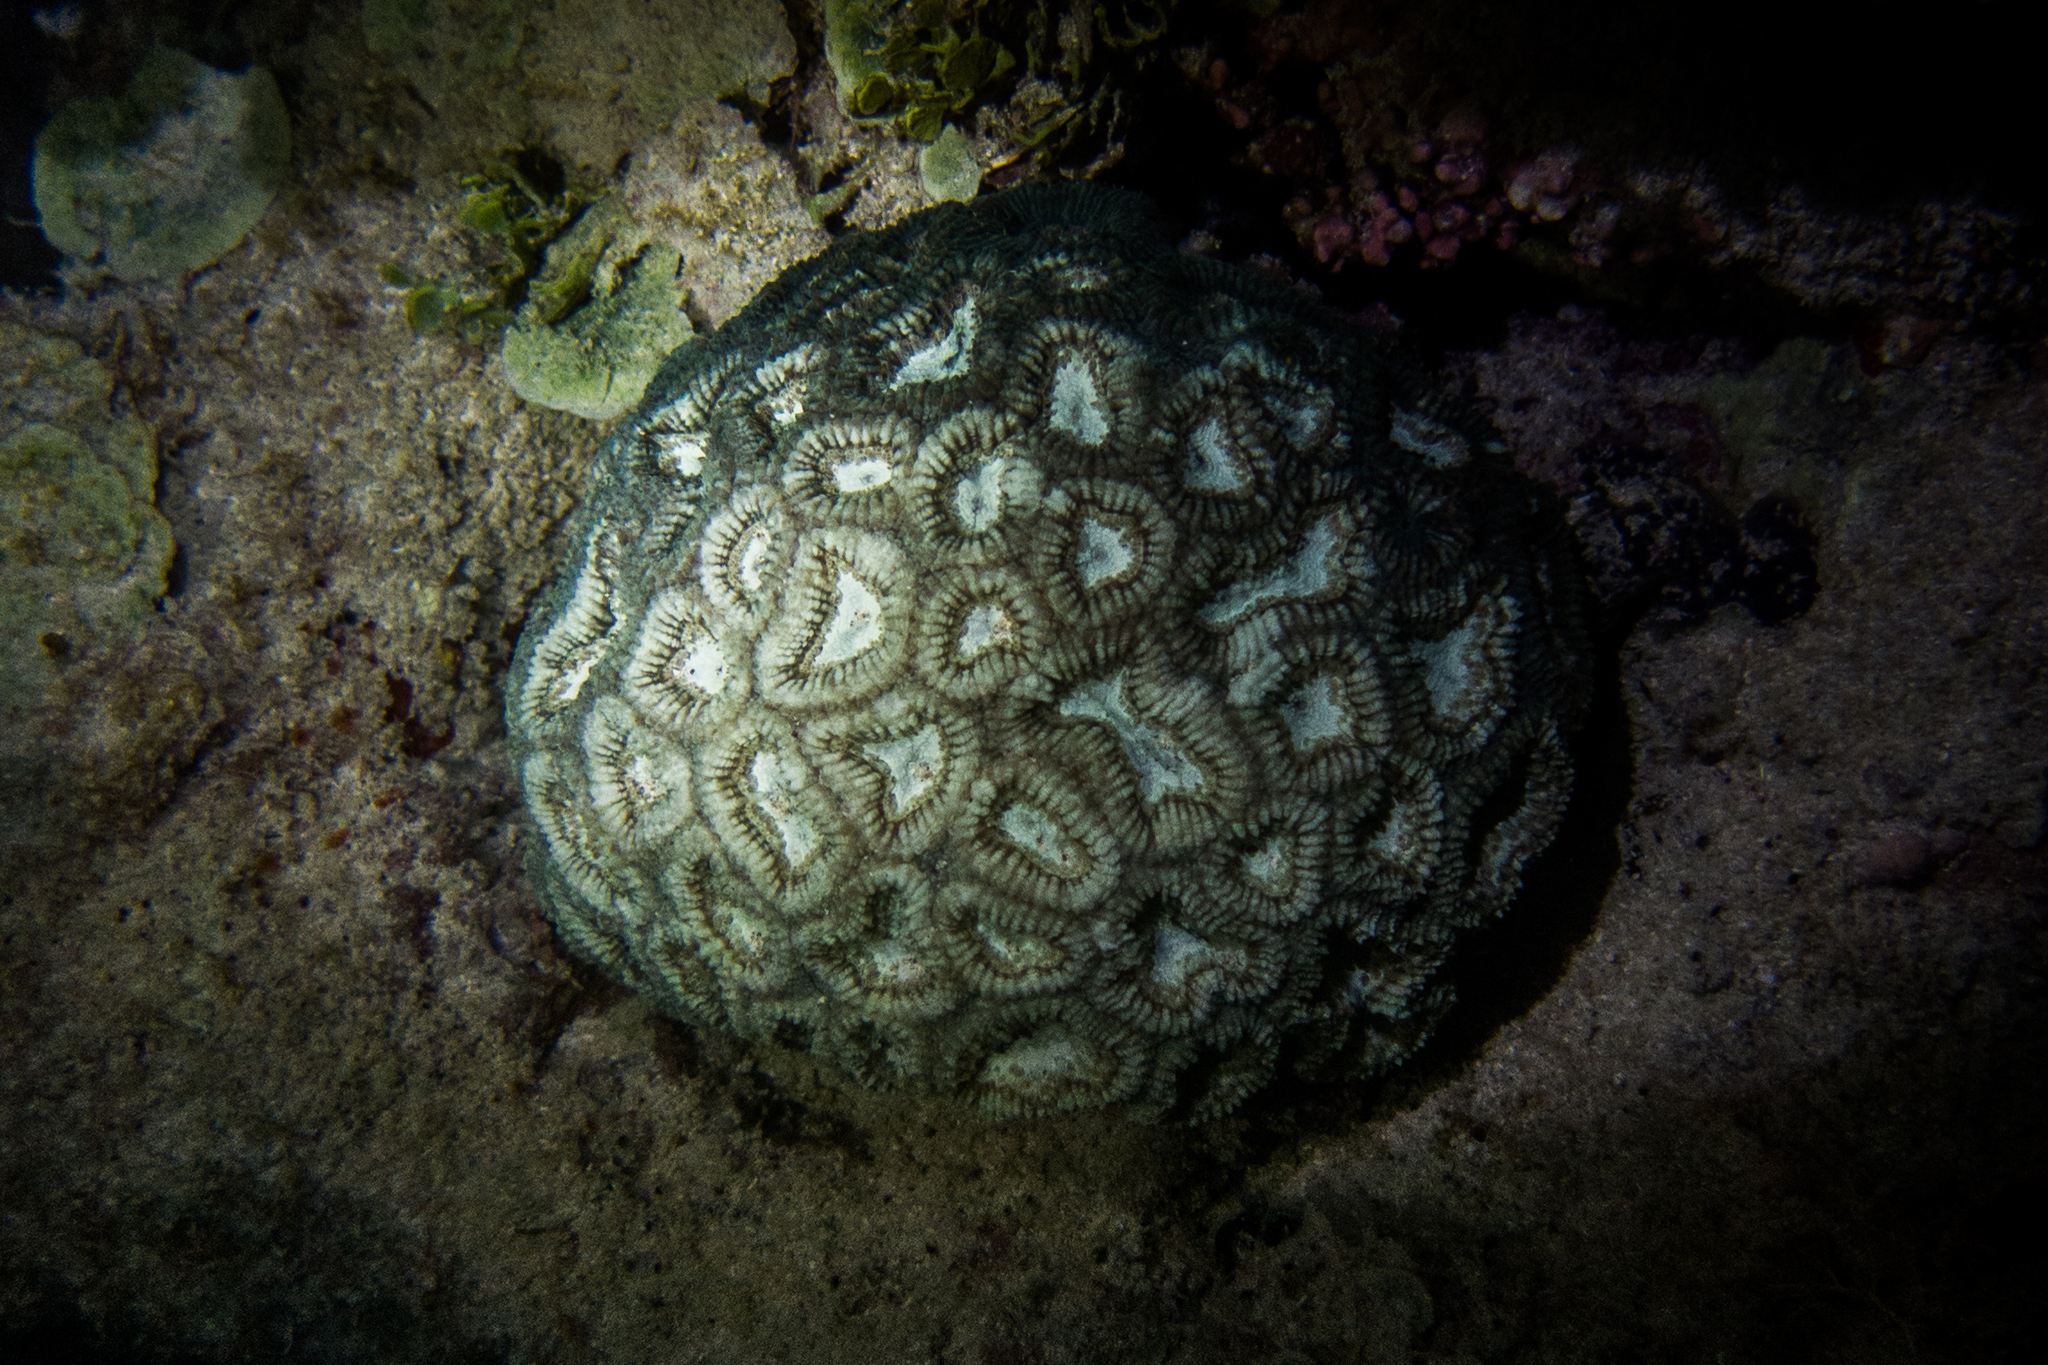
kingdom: Animalia
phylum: Cnidaria
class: Anthozoa
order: Scleractinia
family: Faviidae
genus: Mussismilia
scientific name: Mussismilia hispida
